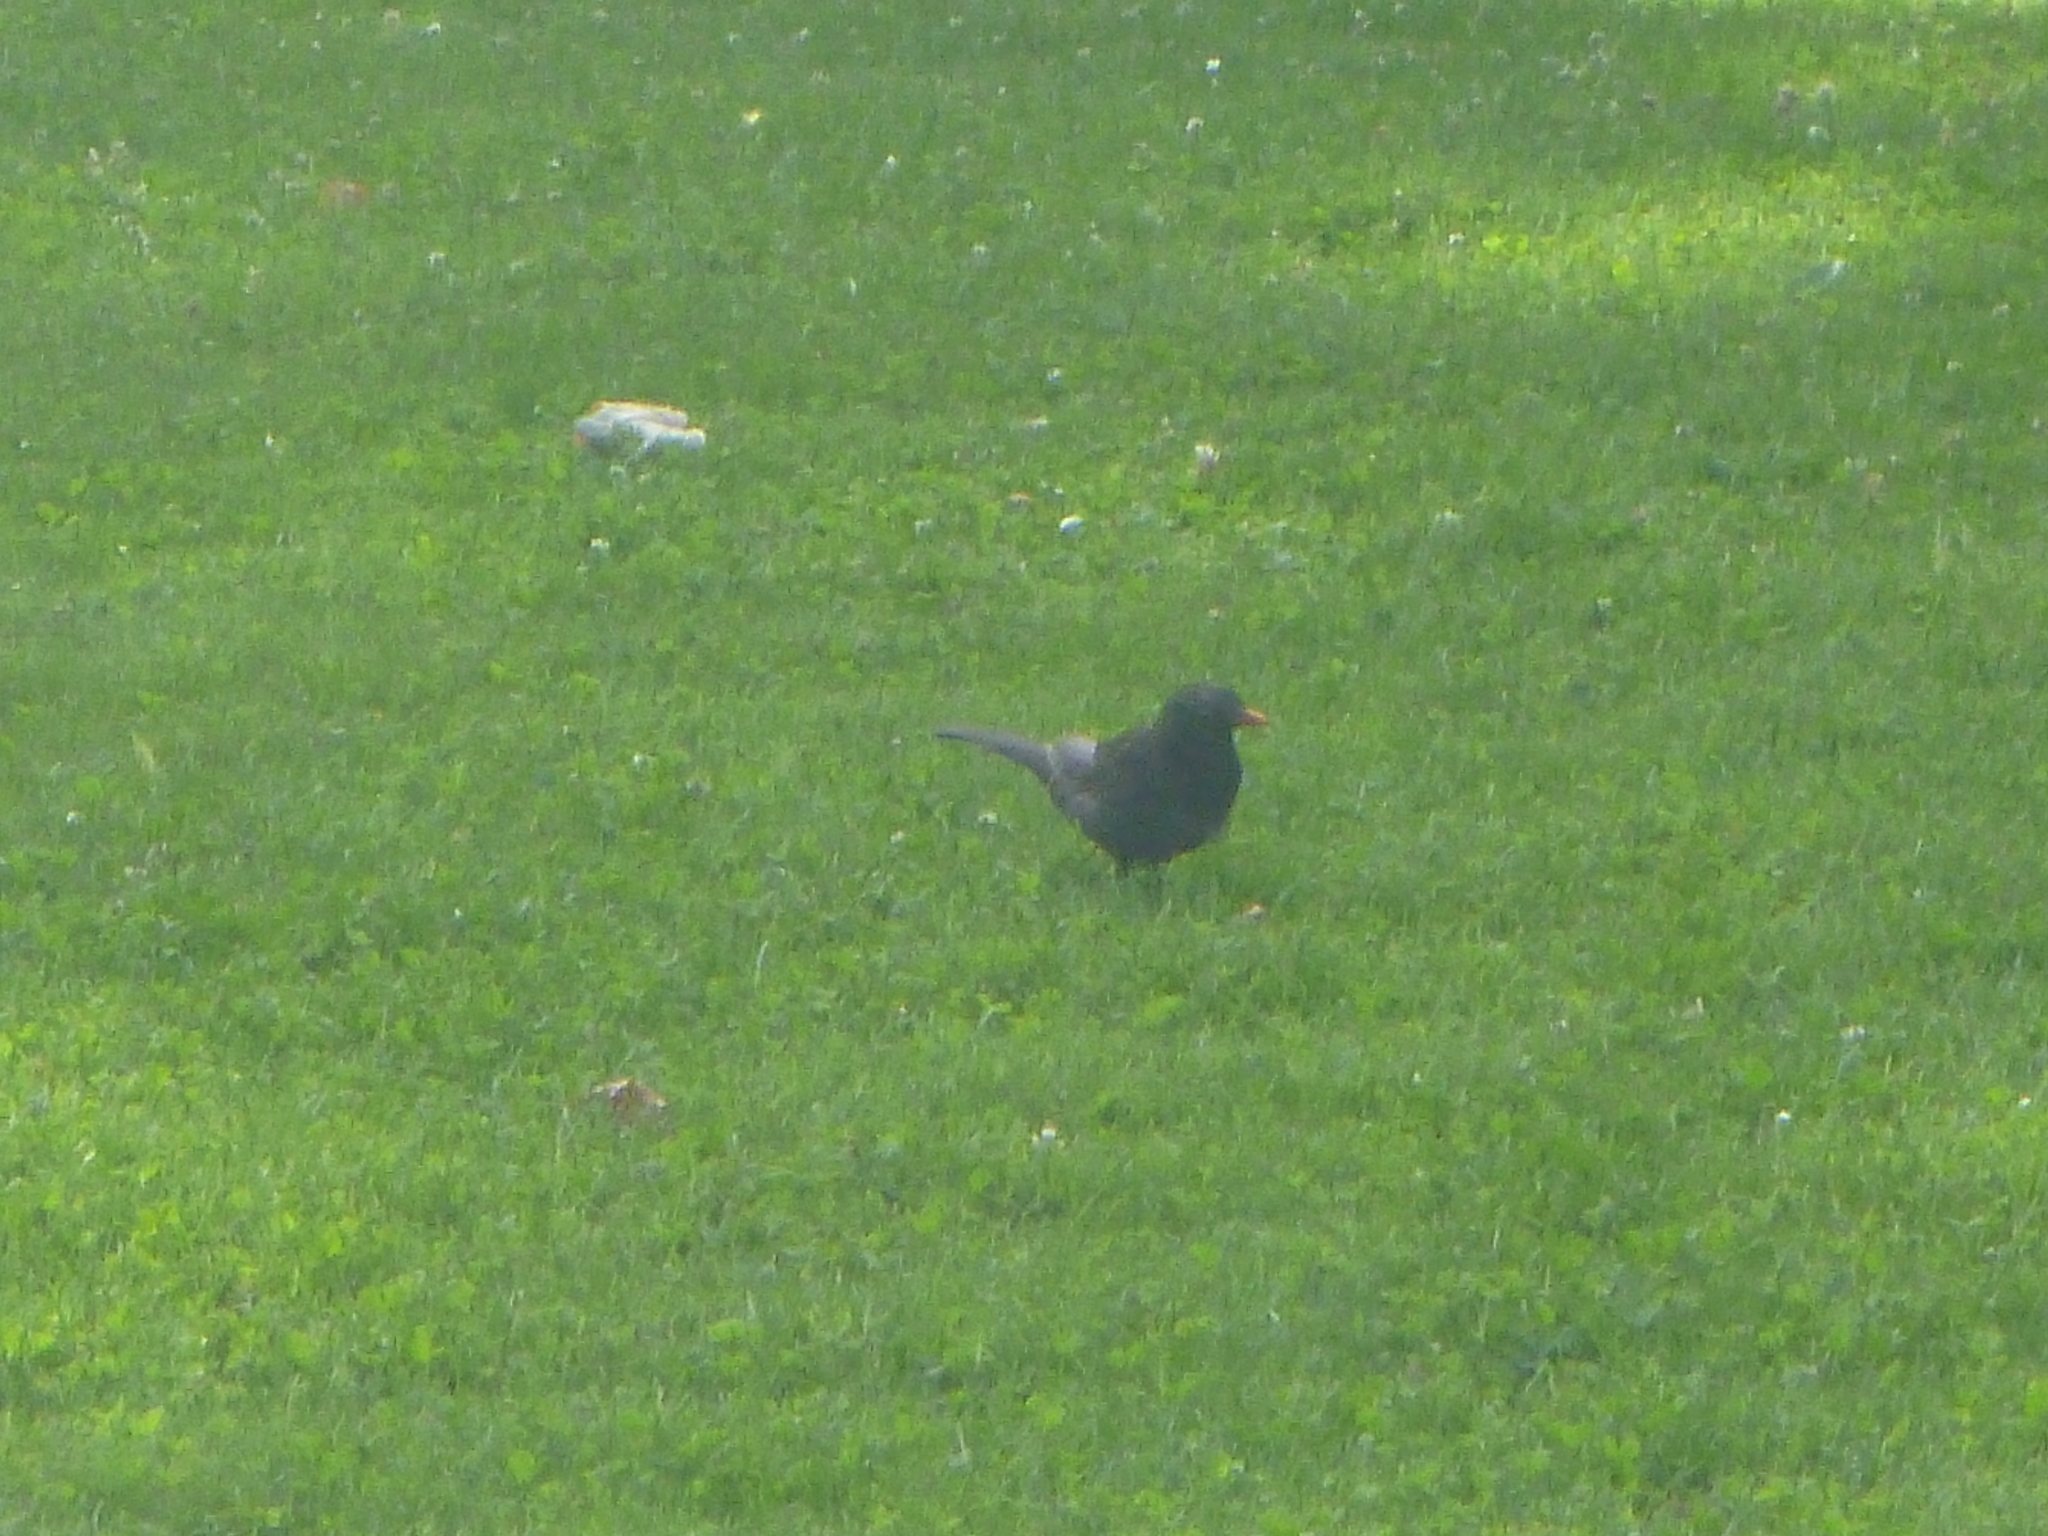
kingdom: Animalia
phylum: Chordata
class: Aves
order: Passeriformes
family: Turdidae
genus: Turdus
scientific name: Turdus merula
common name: Common blackbird
